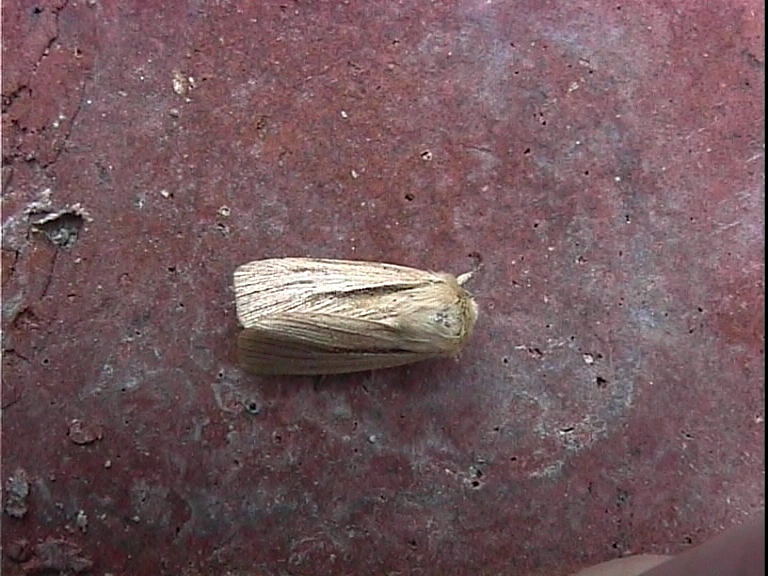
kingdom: Animalia
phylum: Arthropoda
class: Insecta
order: Lepidoptera
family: Noctuidae
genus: Mythimna
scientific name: Mythimna impura
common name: Smoky wainscot
